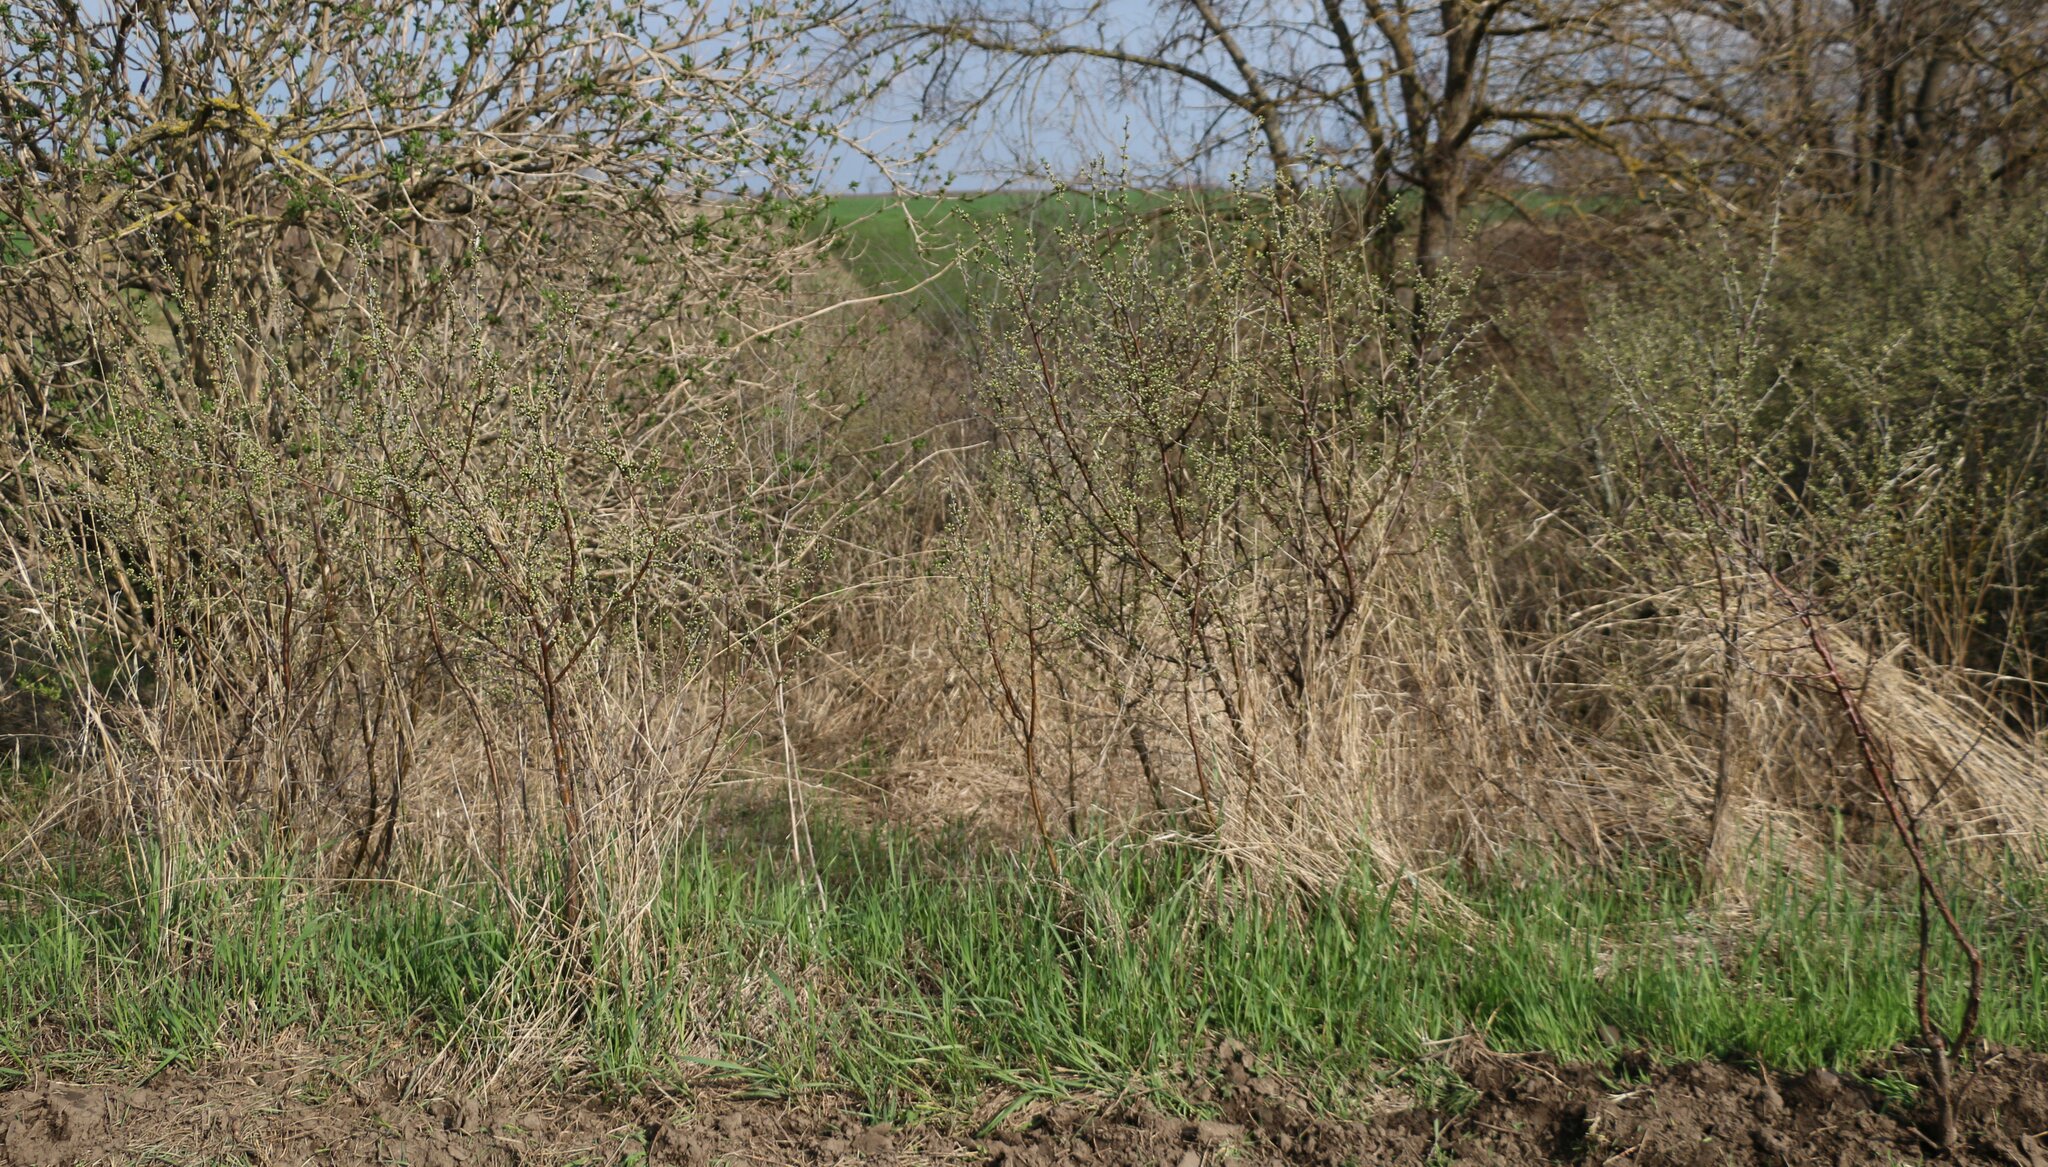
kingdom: Plantae
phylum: Tracheophyta
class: Magnoliopsida
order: Rosales
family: Rosaceae
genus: Prunus
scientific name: Prunus spinosa
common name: Blackthorn
